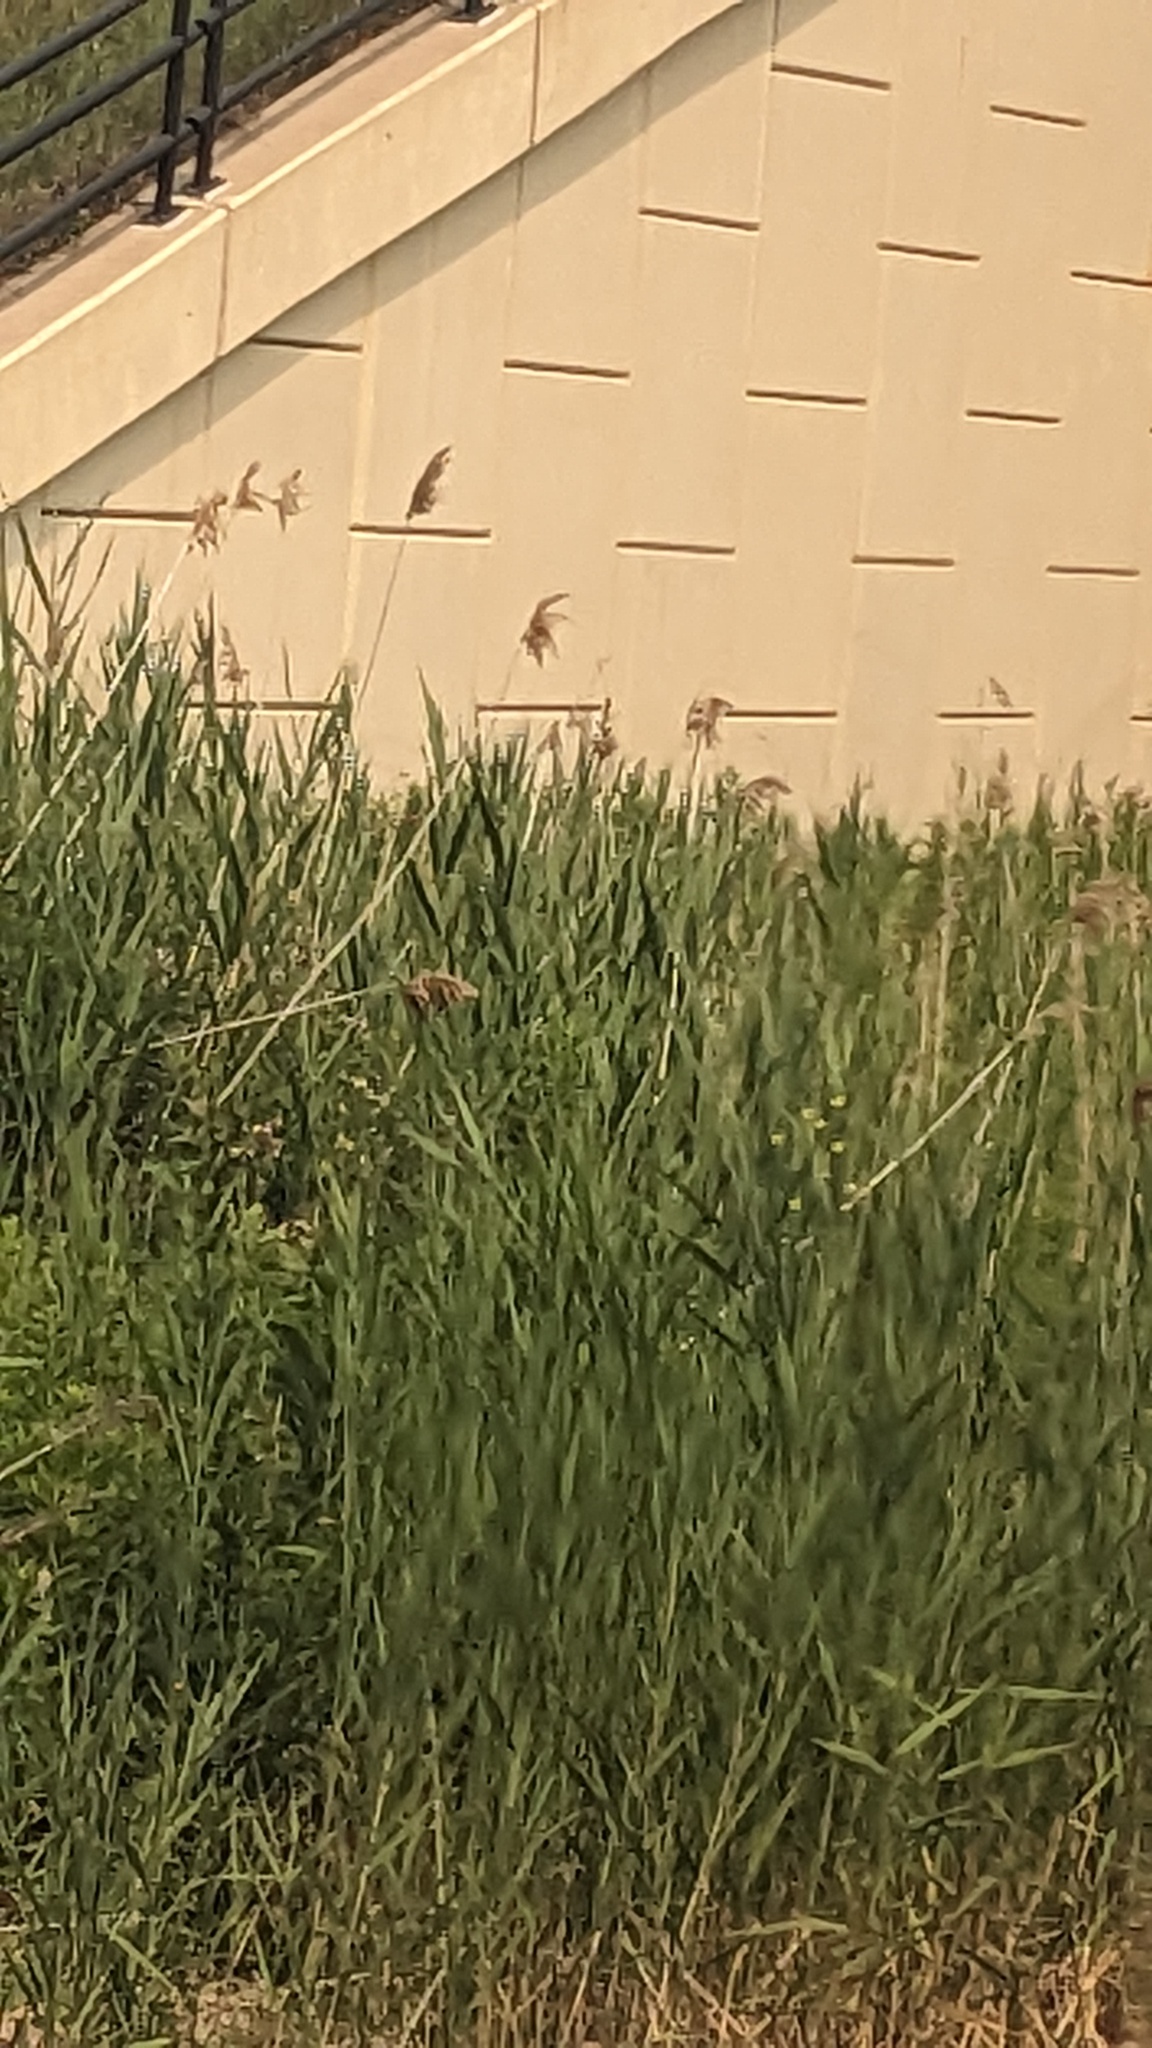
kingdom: Plantae
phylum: Tracheophyta
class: Liliopsida
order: Poales
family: Poaceae
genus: Phragmites
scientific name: Phragmites australis
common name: Common reed
